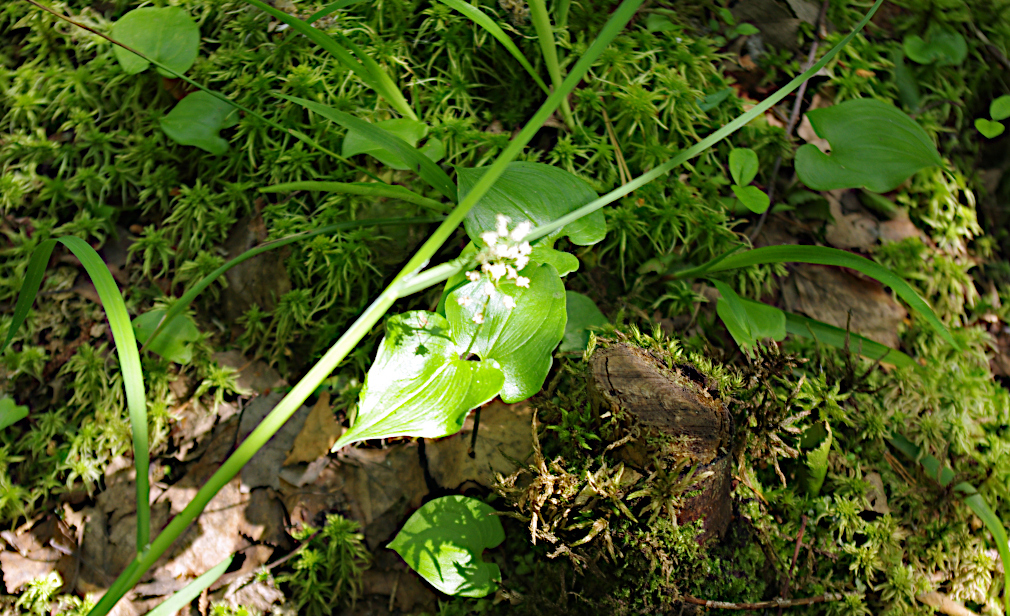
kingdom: Plantae
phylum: Tracheophyta
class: Liliopsida
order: Asparagales
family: Asparagaceae
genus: Maianthemum
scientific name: Maianthemum bifolium
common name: May lily
